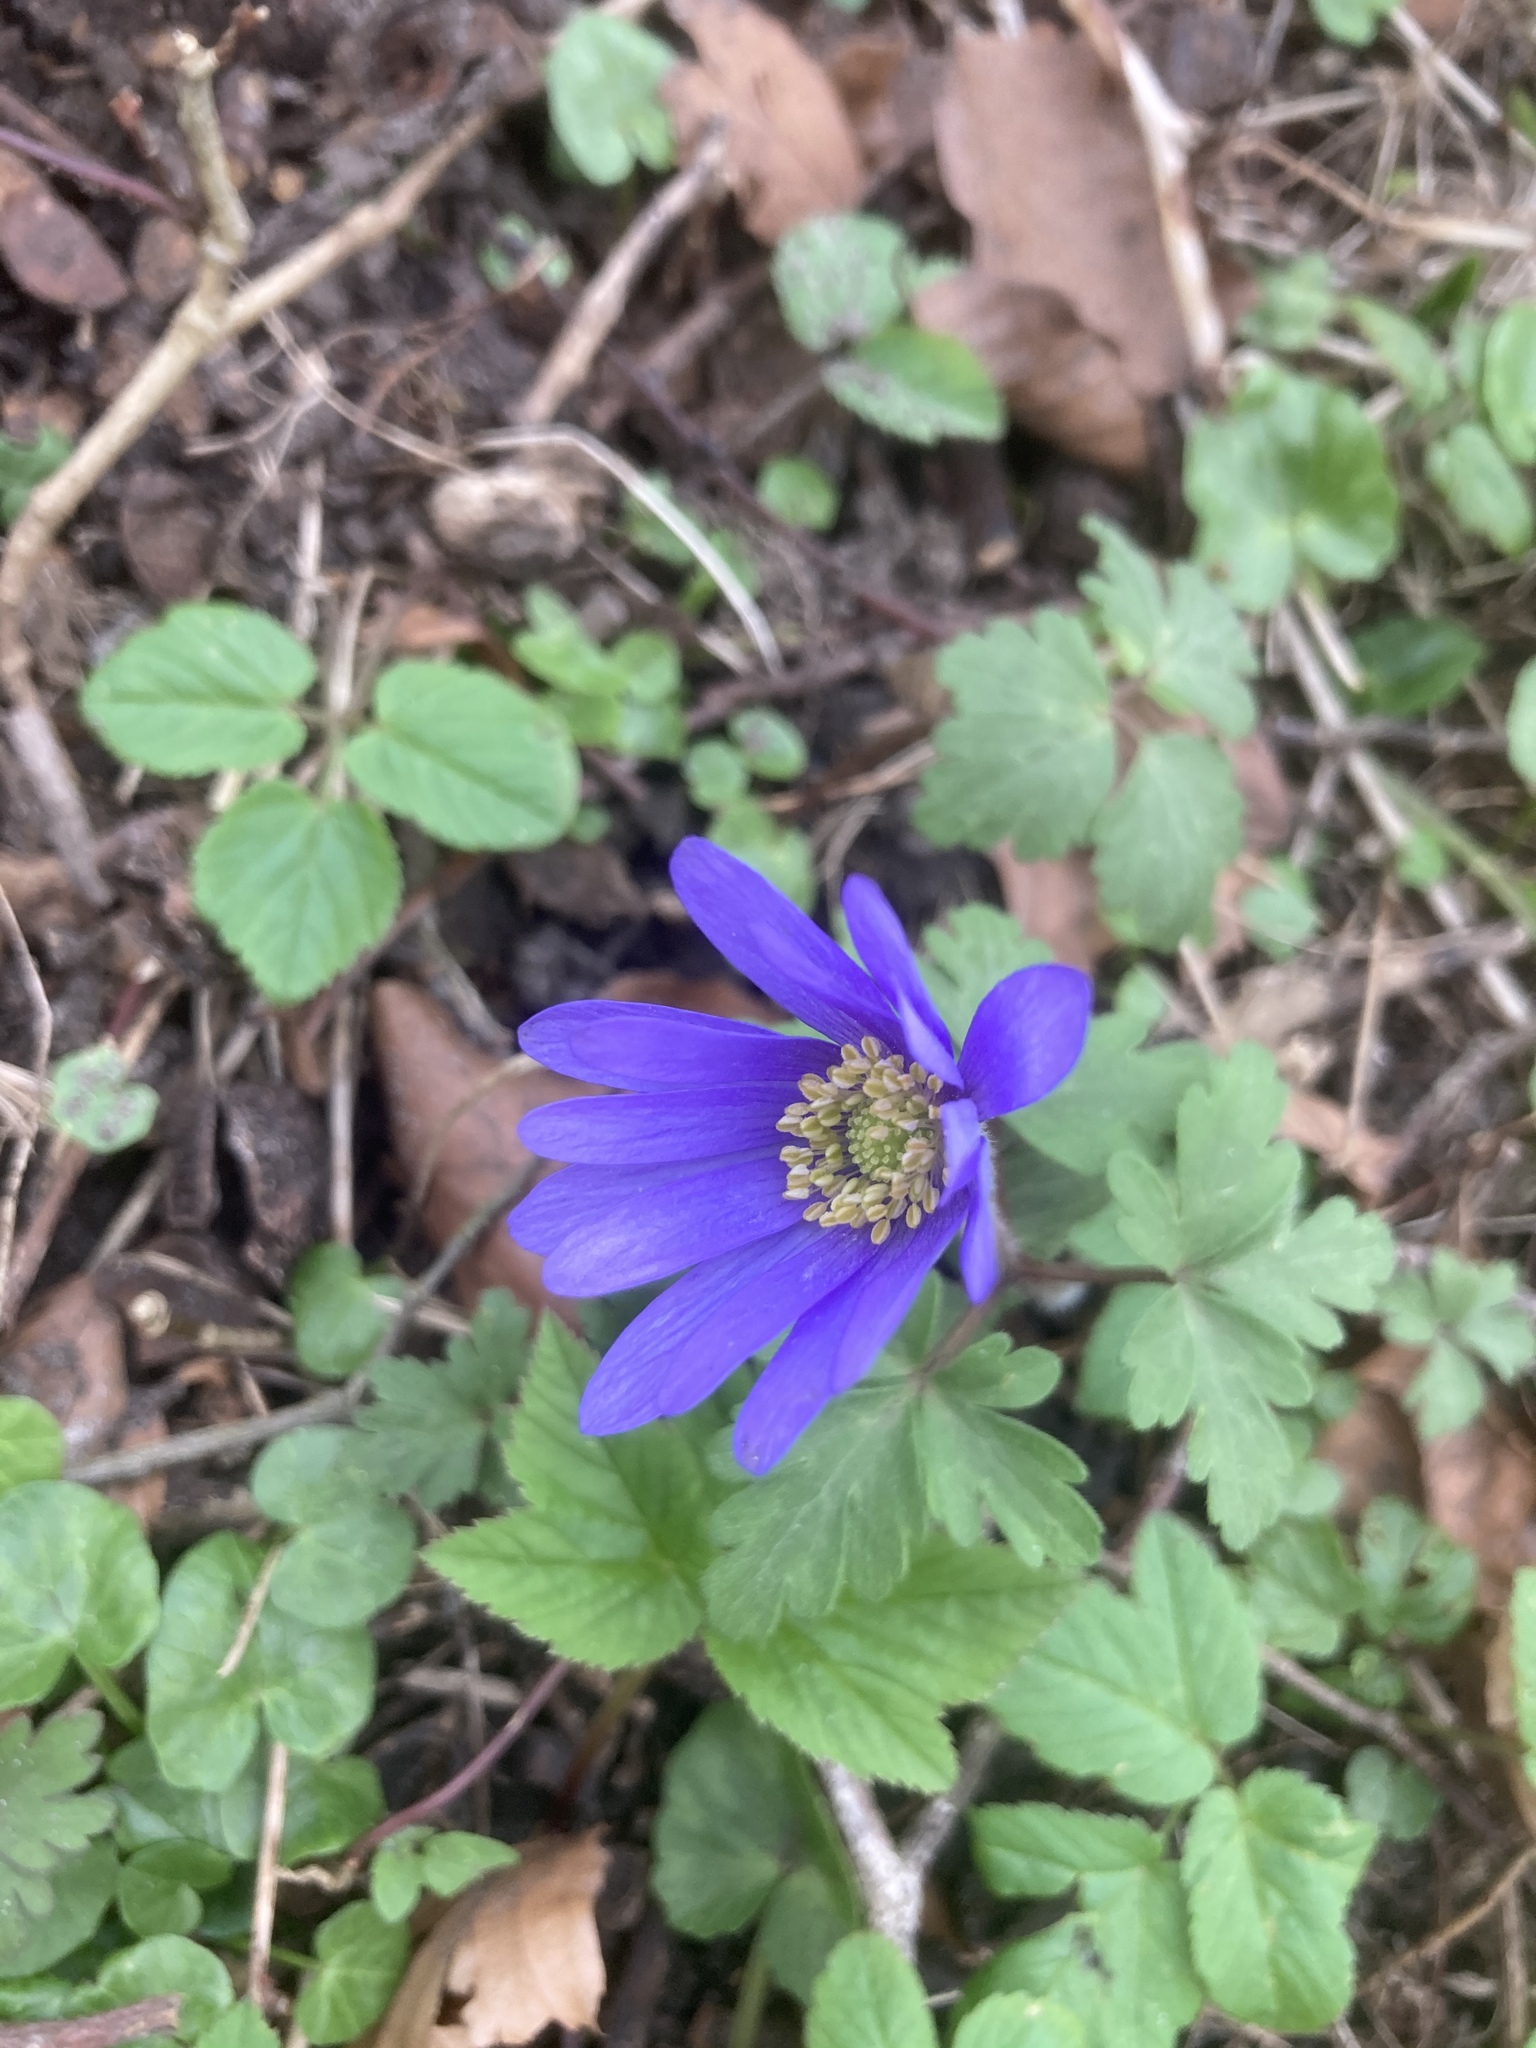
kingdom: Plantae
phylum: Tracheophyta
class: Magnoliopsida
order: Ranunculales
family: Ranunculaceae
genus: Anemone
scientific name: Anemone blanda
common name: Balkan anemone
